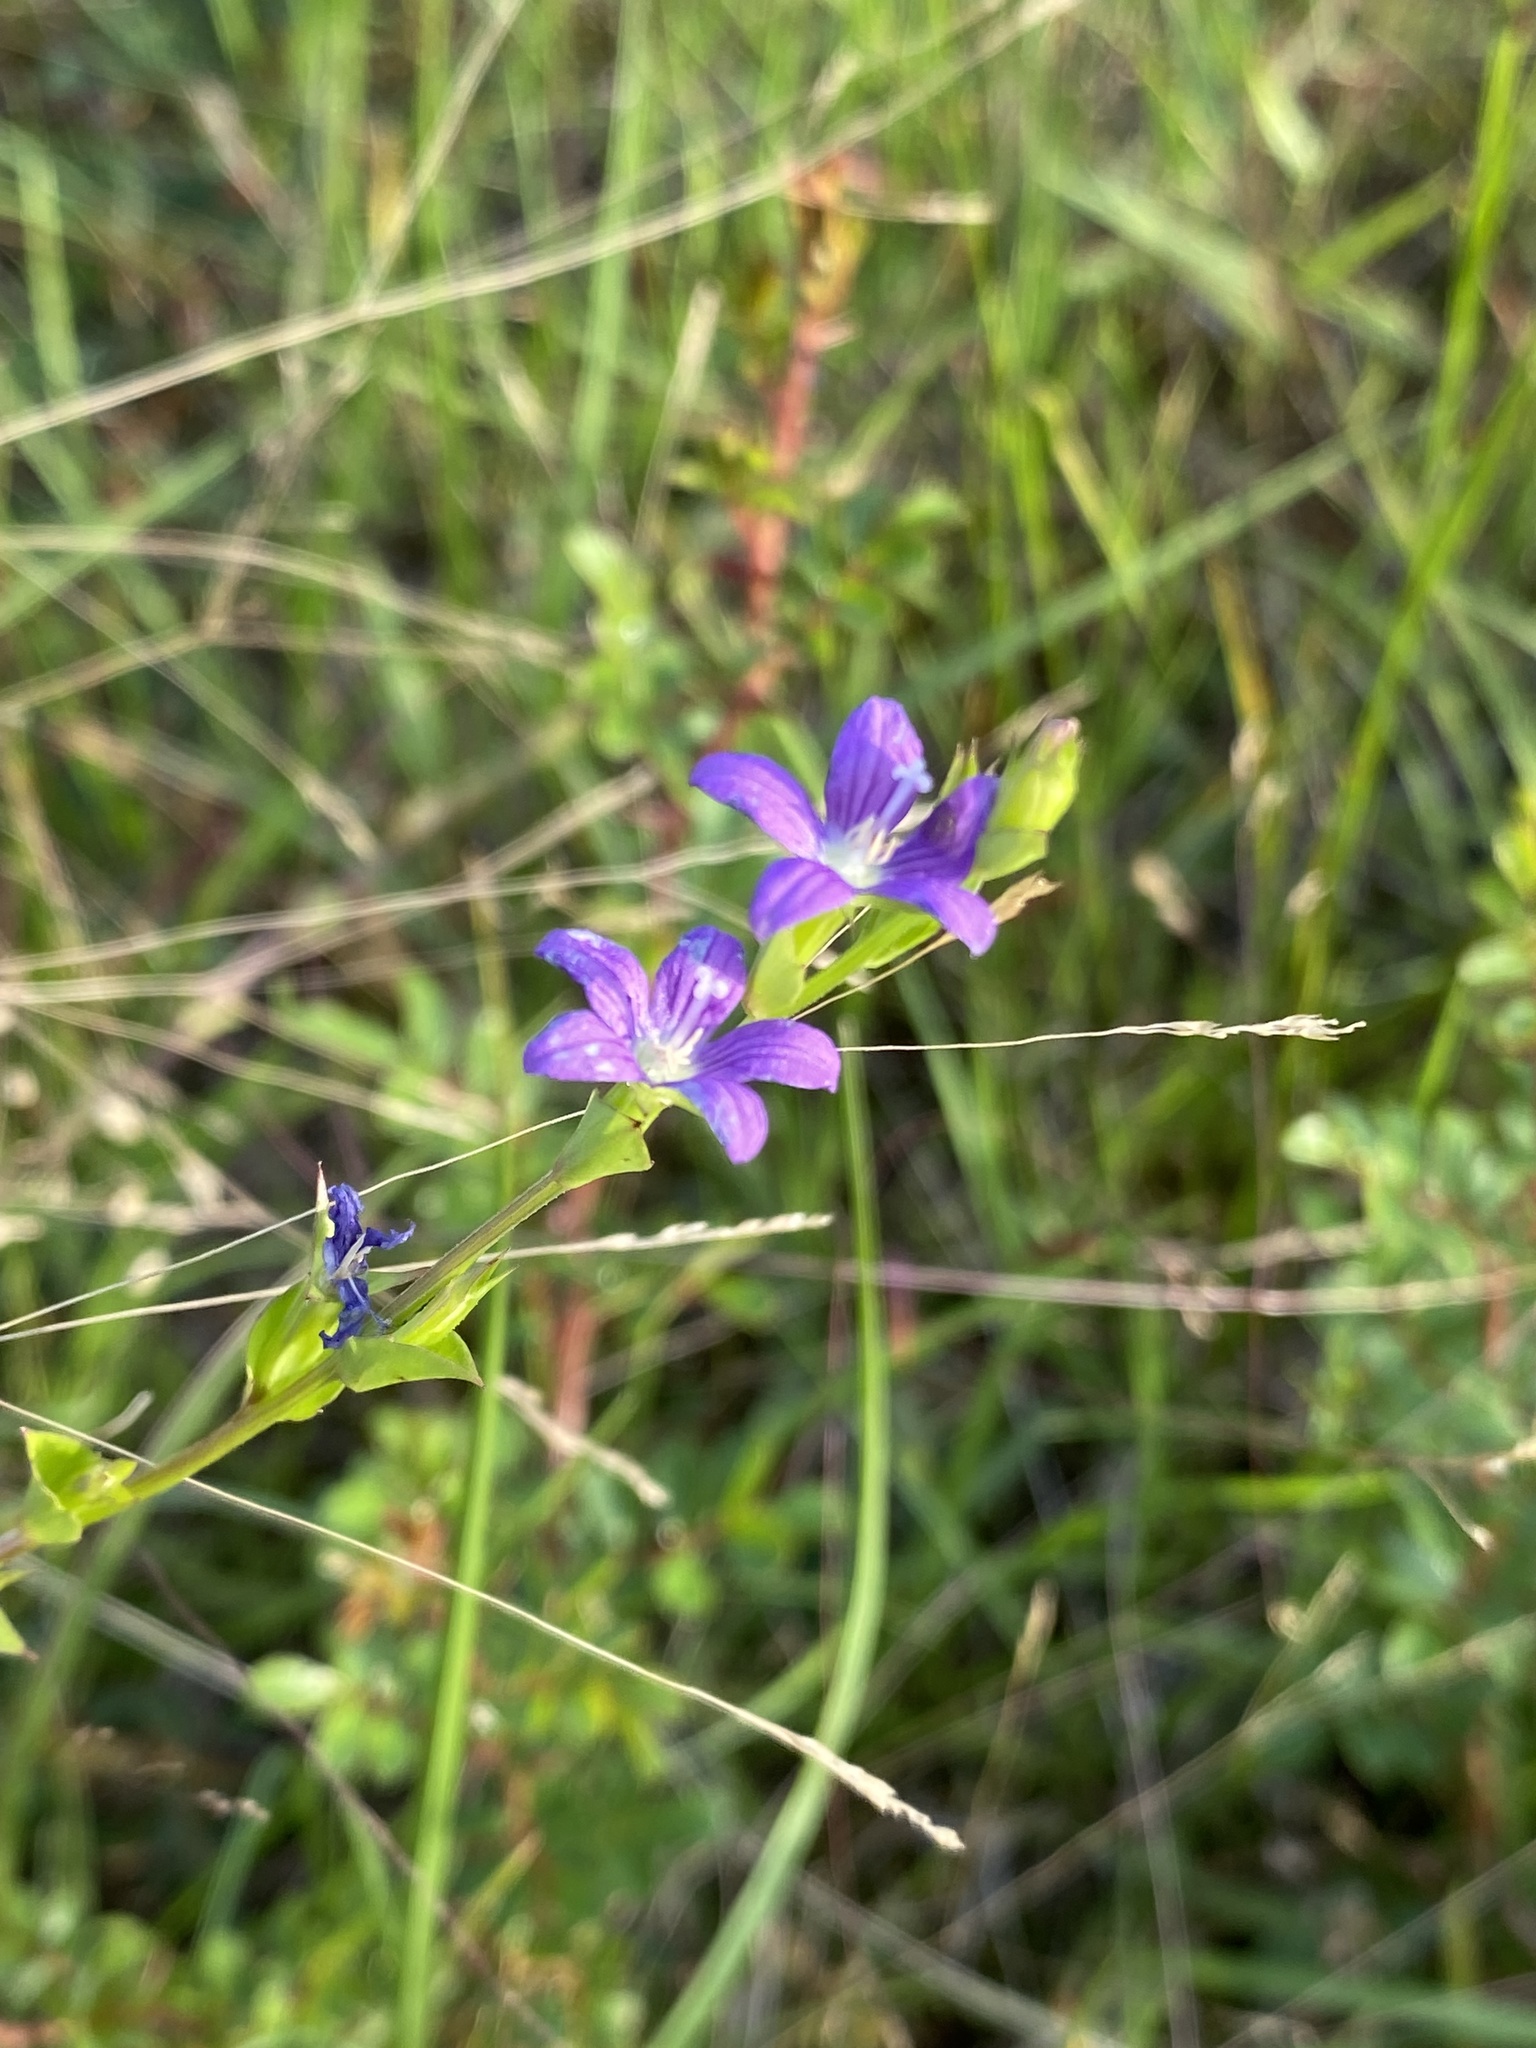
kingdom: Plantae
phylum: Tracheophyta
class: Magnoliopsida
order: Asterales
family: Campanulaceae
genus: Triodanis
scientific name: Triodanis biflora
